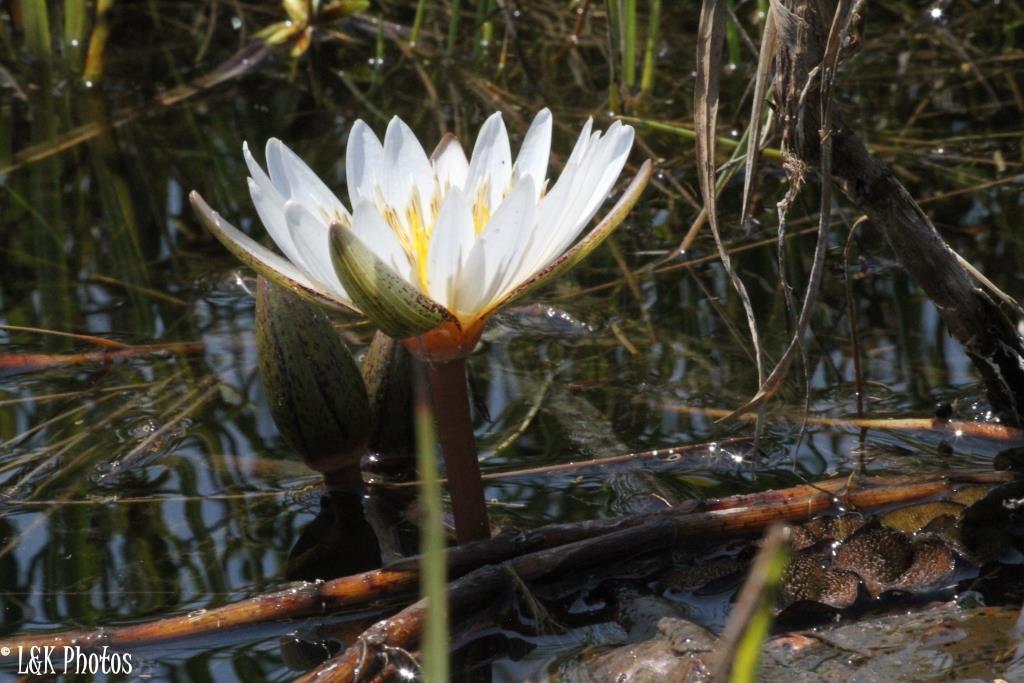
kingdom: Plantae
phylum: Tracheophyta
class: Magnoliopsida
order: Nymphaeales
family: Nymphaeaceae
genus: Nymphaea
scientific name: Nymphaea nouchali
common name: Blue lotus
